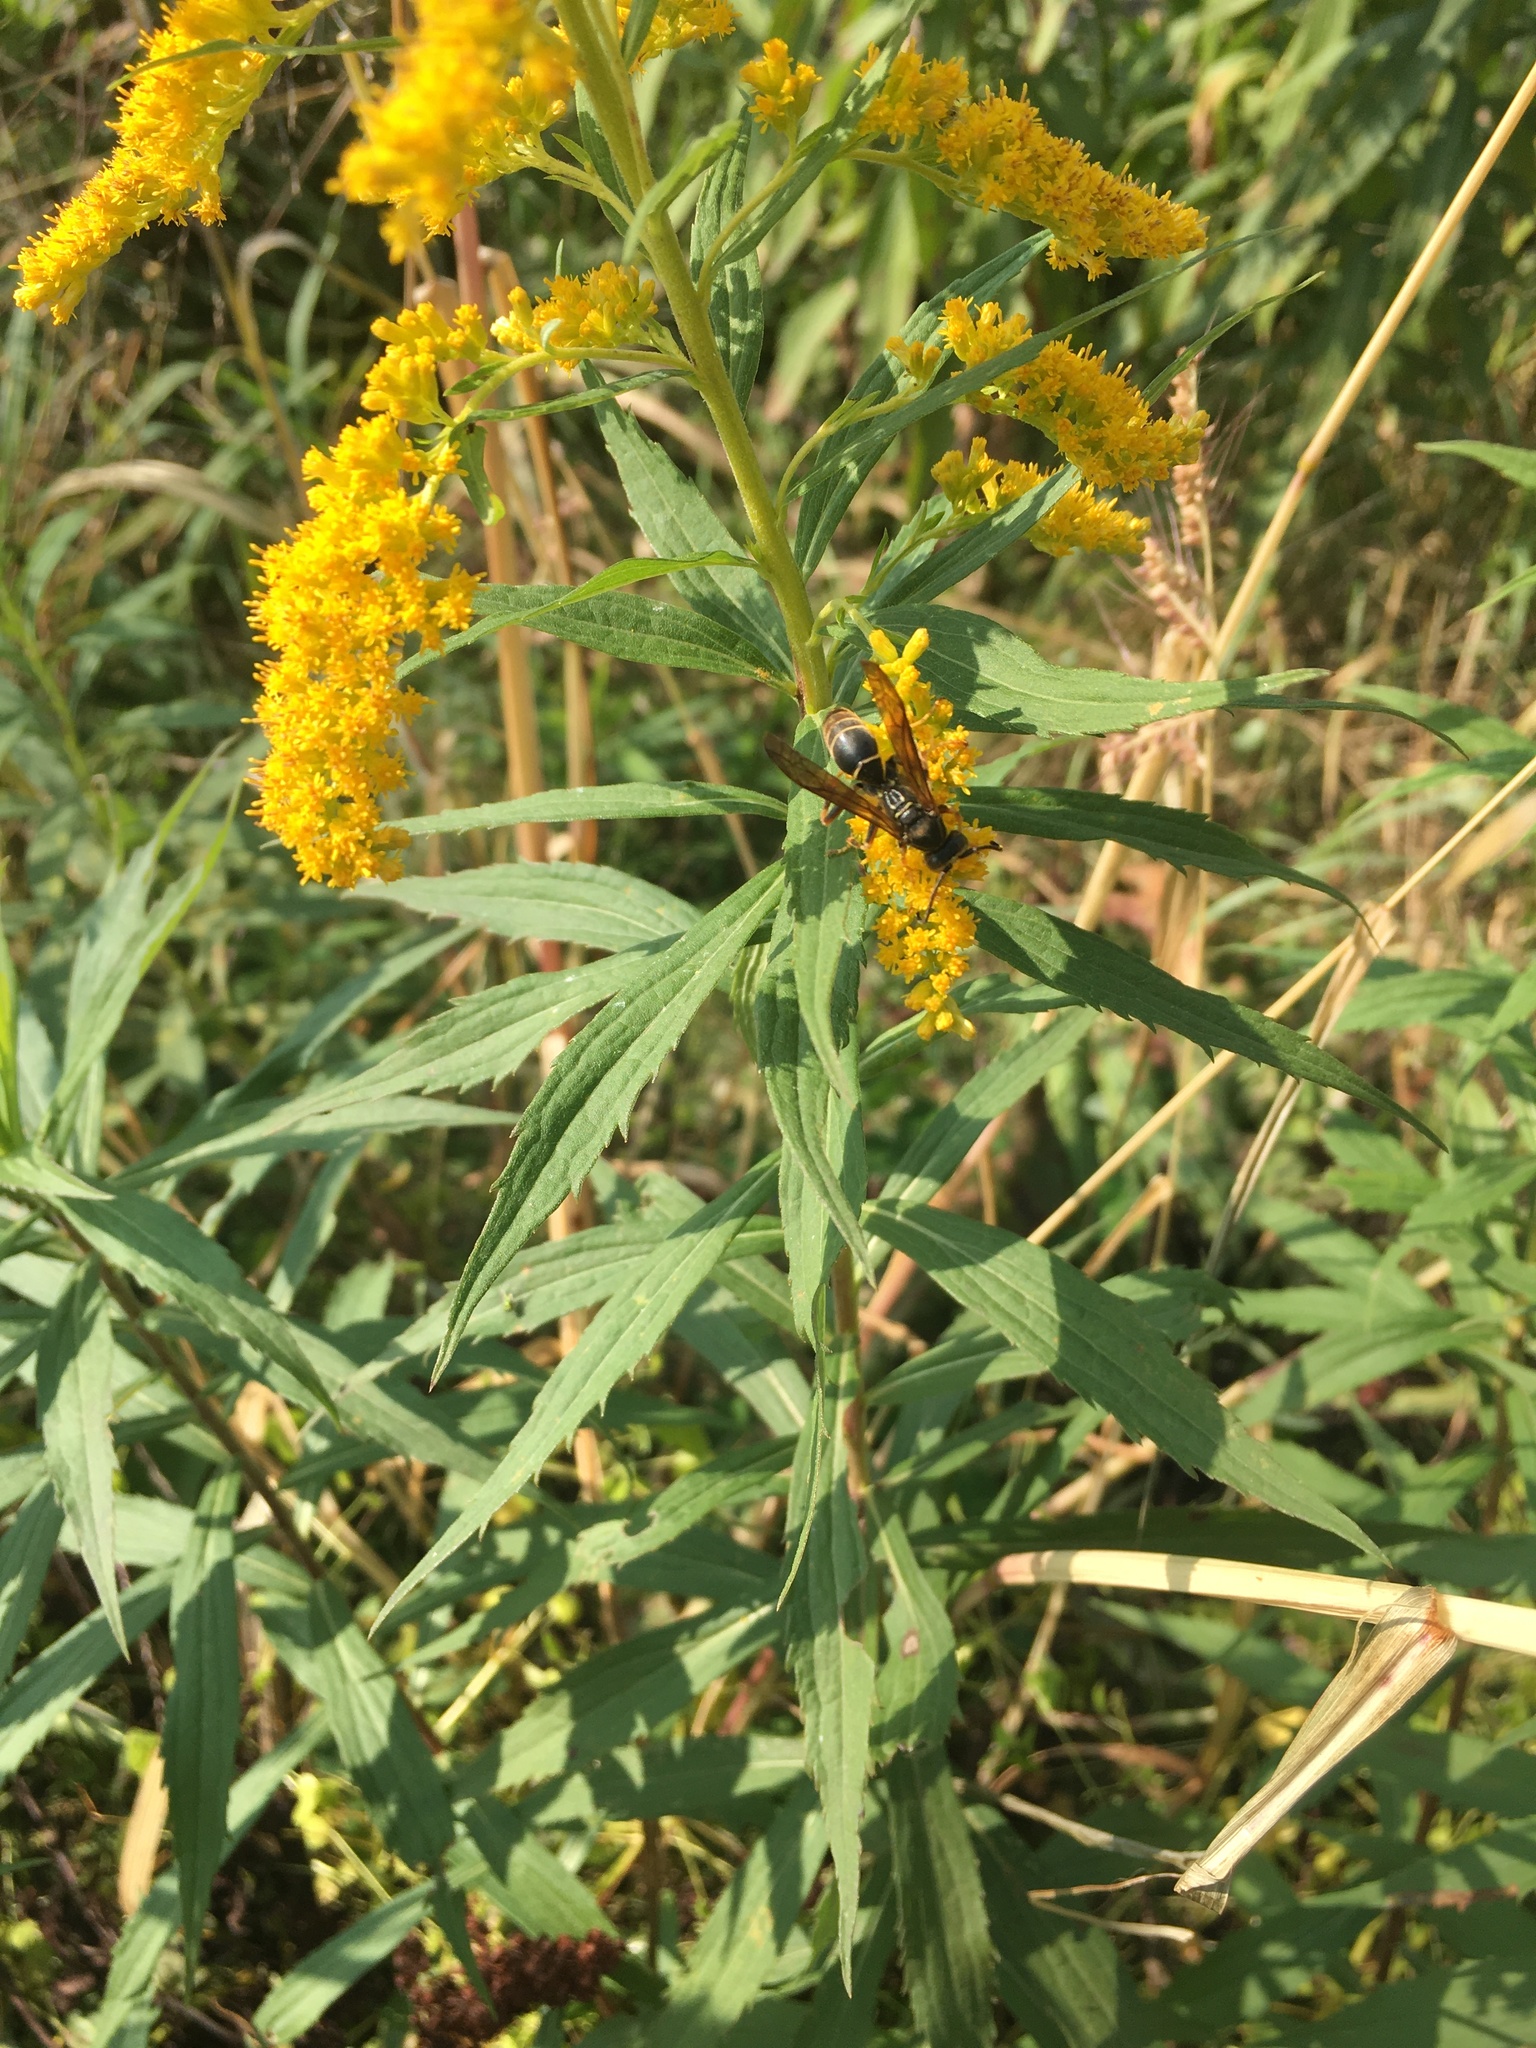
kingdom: Animalia
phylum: Arthropoda
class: Insecta
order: Hymenoptera
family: Eumenidae
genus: Polistes
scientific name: Polistes fuscatus
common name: Dark paper wasp
